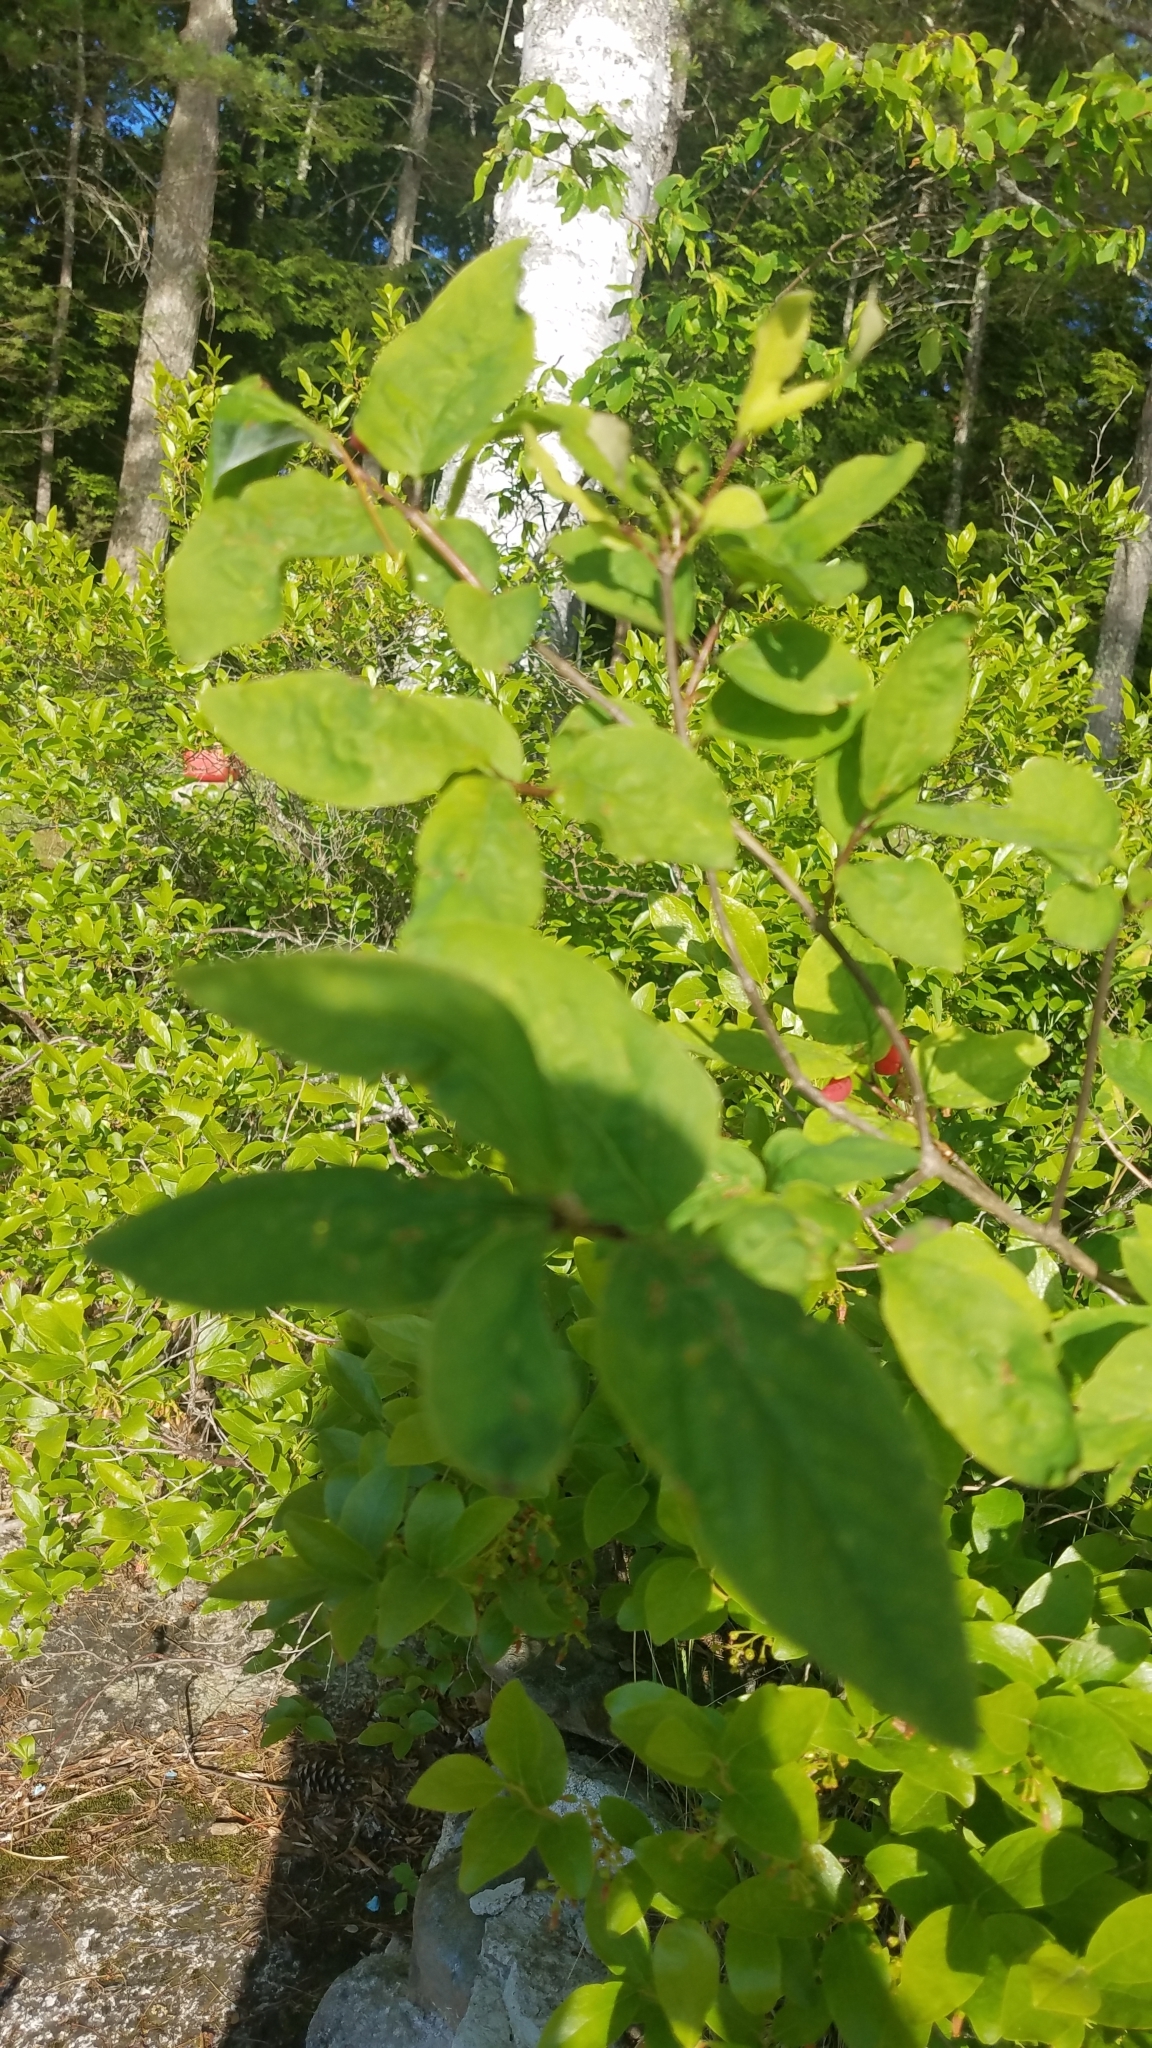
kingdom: Plantae
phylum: Tracheophyta
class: Magnoliopsida
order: Dipsacales
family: Caprifoliaceae
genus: Lonicera
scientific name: Lonicera canadensis
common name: American fly-honeysuckle
